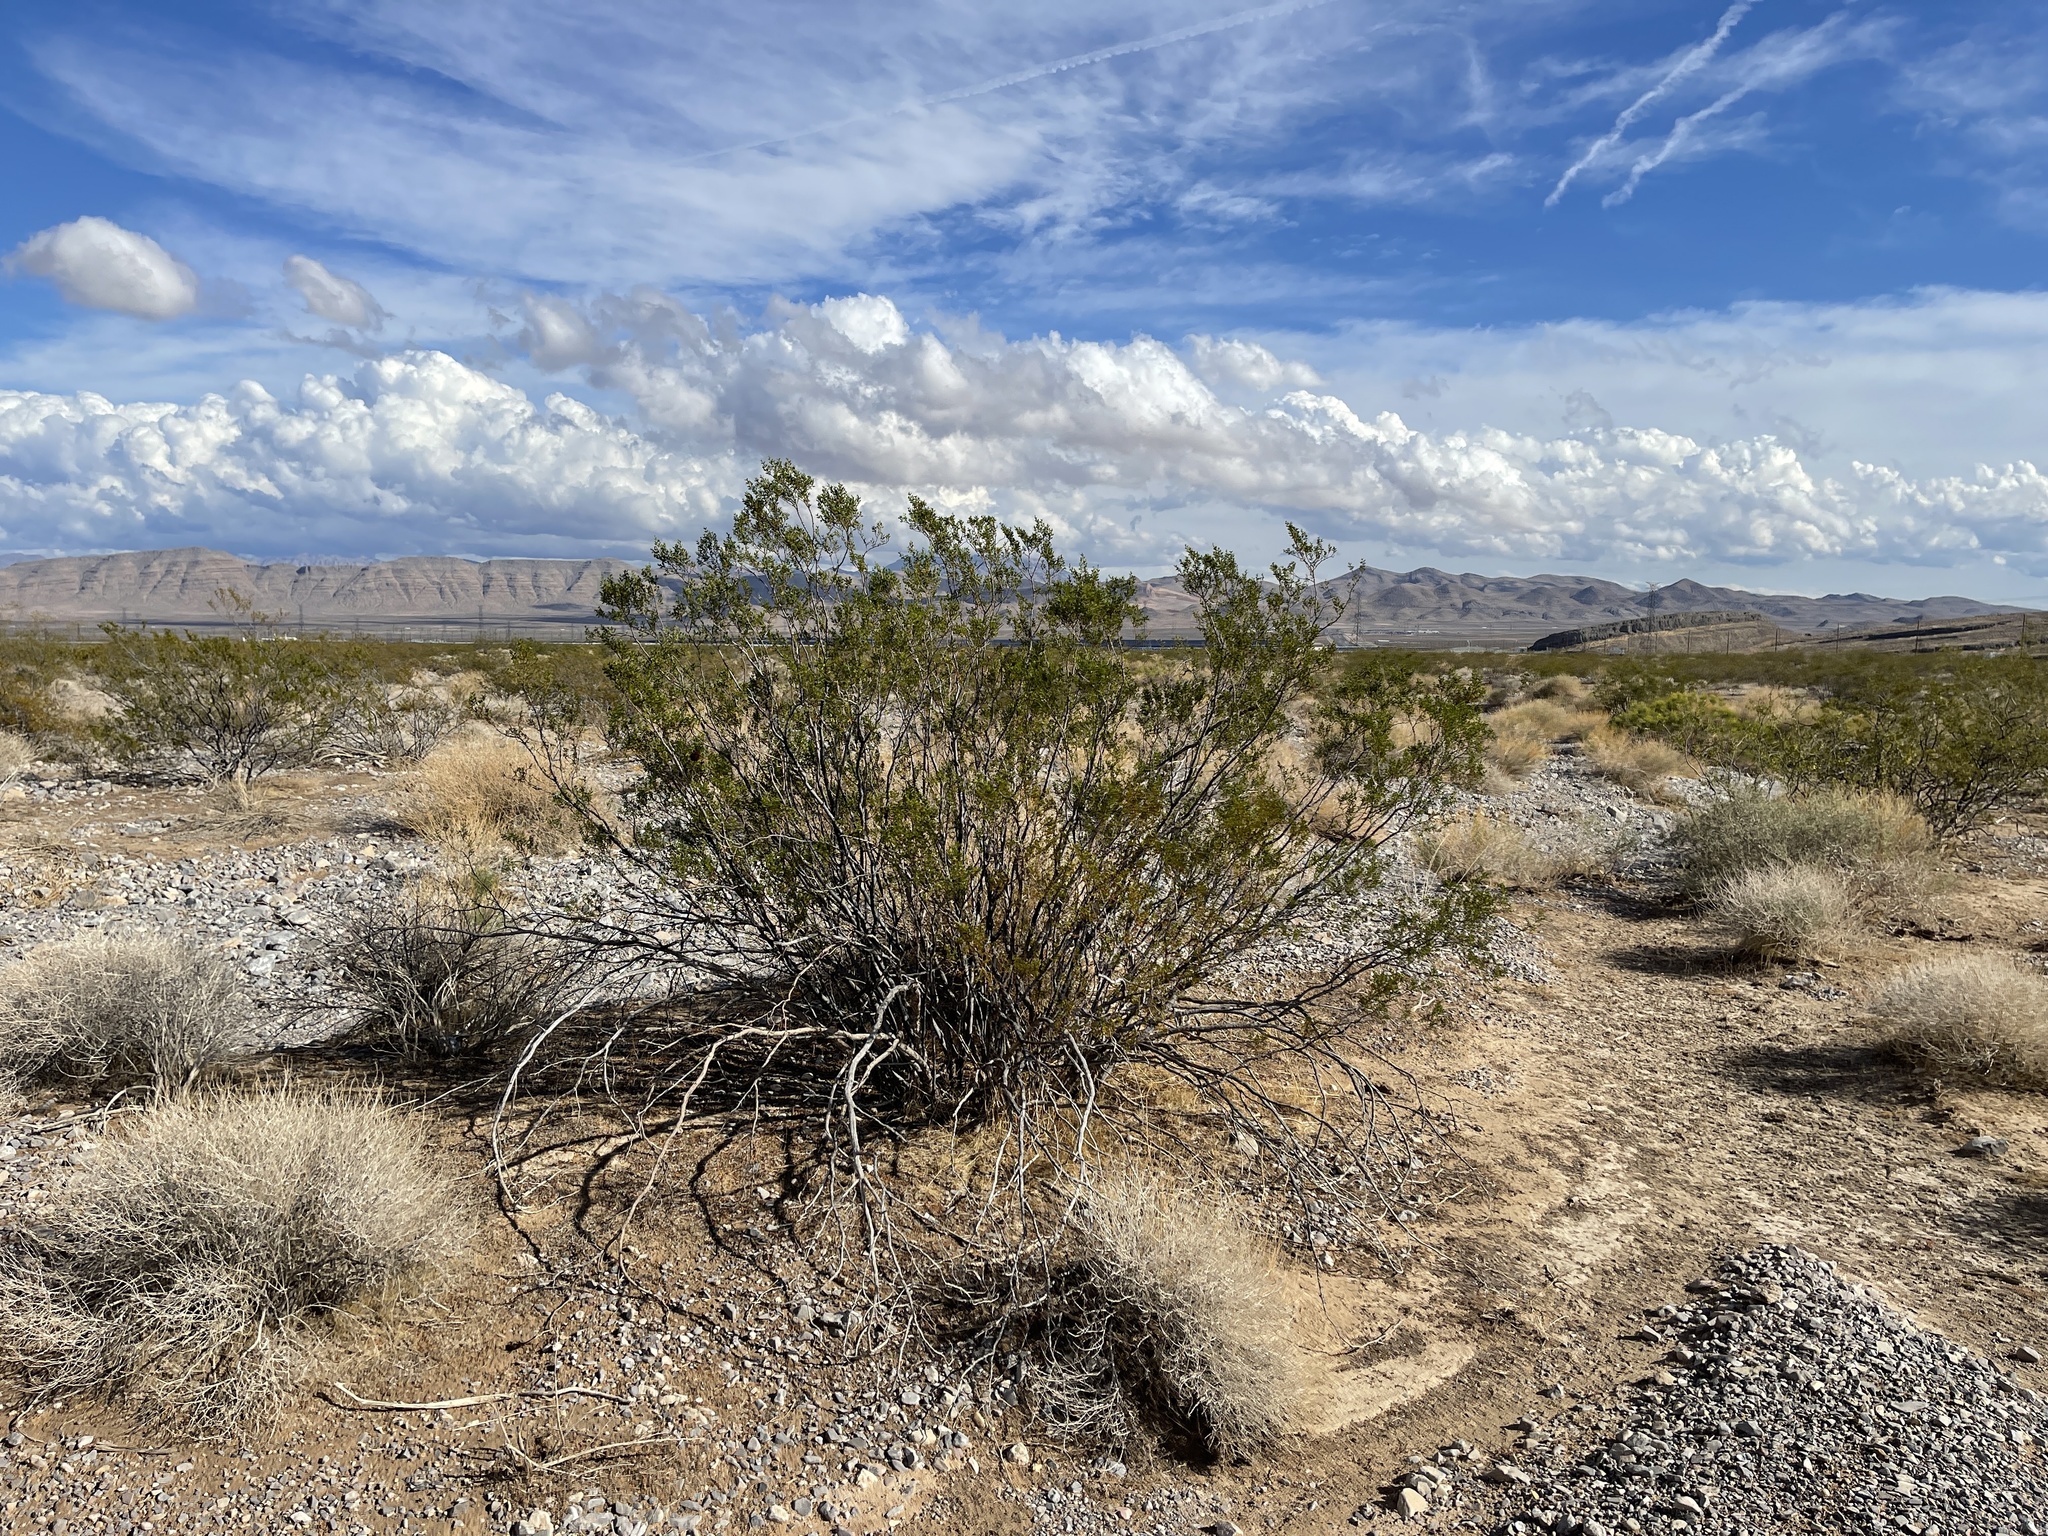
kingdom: Plantae
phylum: Tracheophyta
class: Magnoliopsida
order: Zygophyllales
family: Zygophyllaceae
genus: Larrea
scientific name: Larrea tridentata
